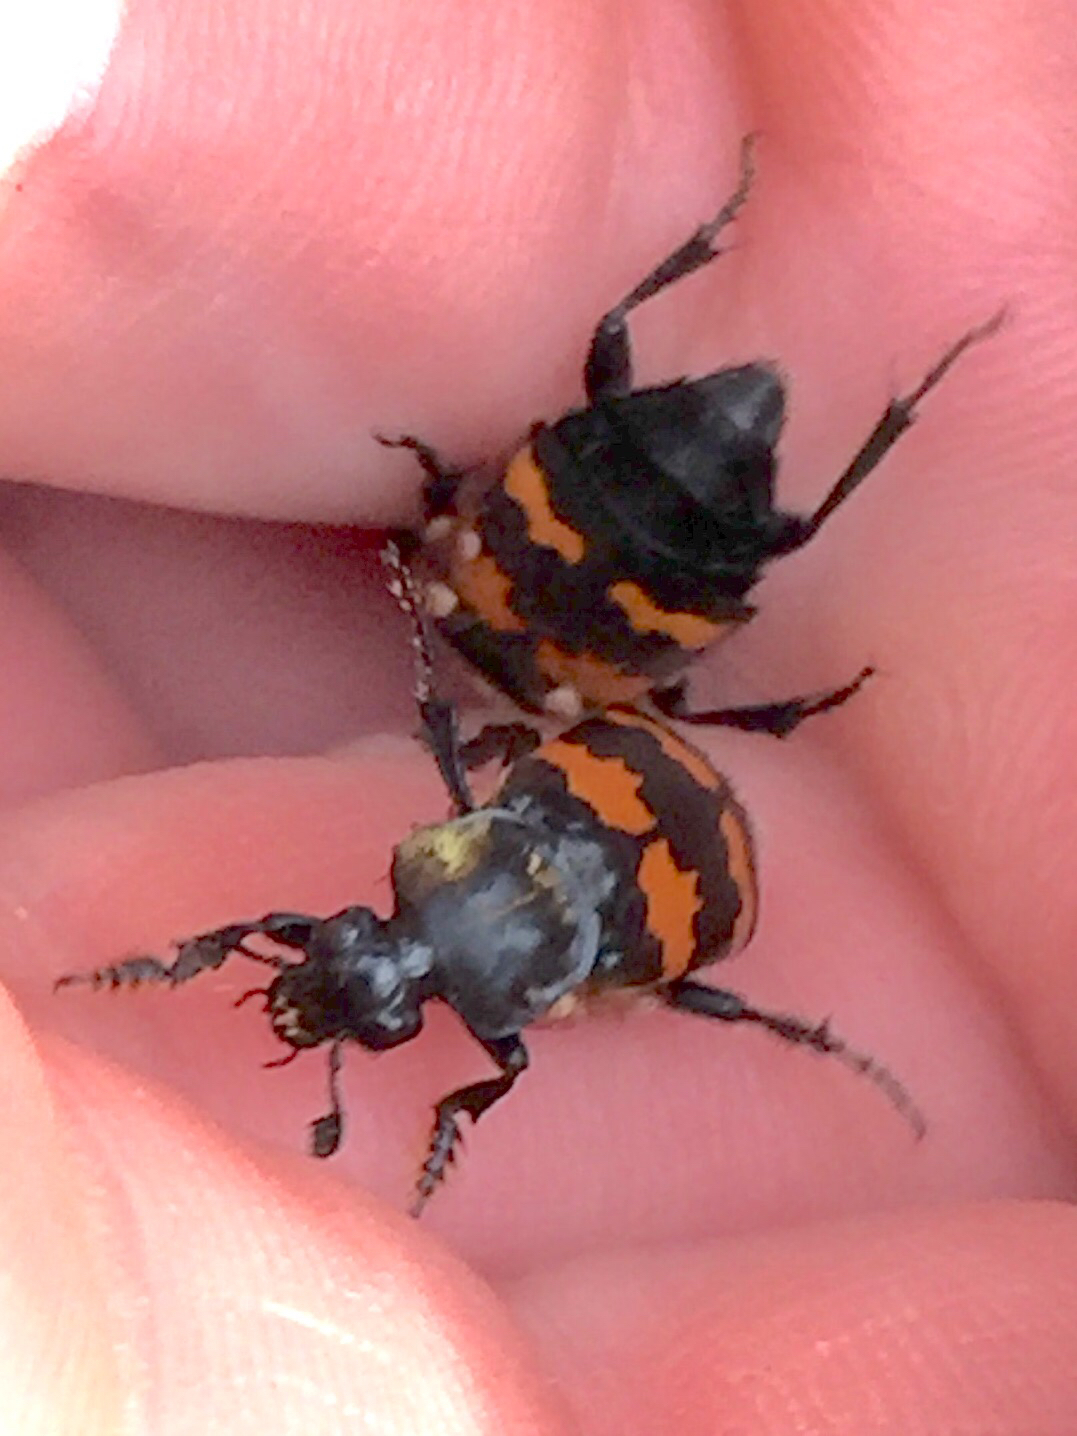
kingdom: Animalia
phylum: Arthropoda
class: Insecta
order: Coleoptera
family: Staphylinidae
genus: Nicrophorus
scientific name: Nicrophorus tomentosus
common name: Tomentose burying beetle
